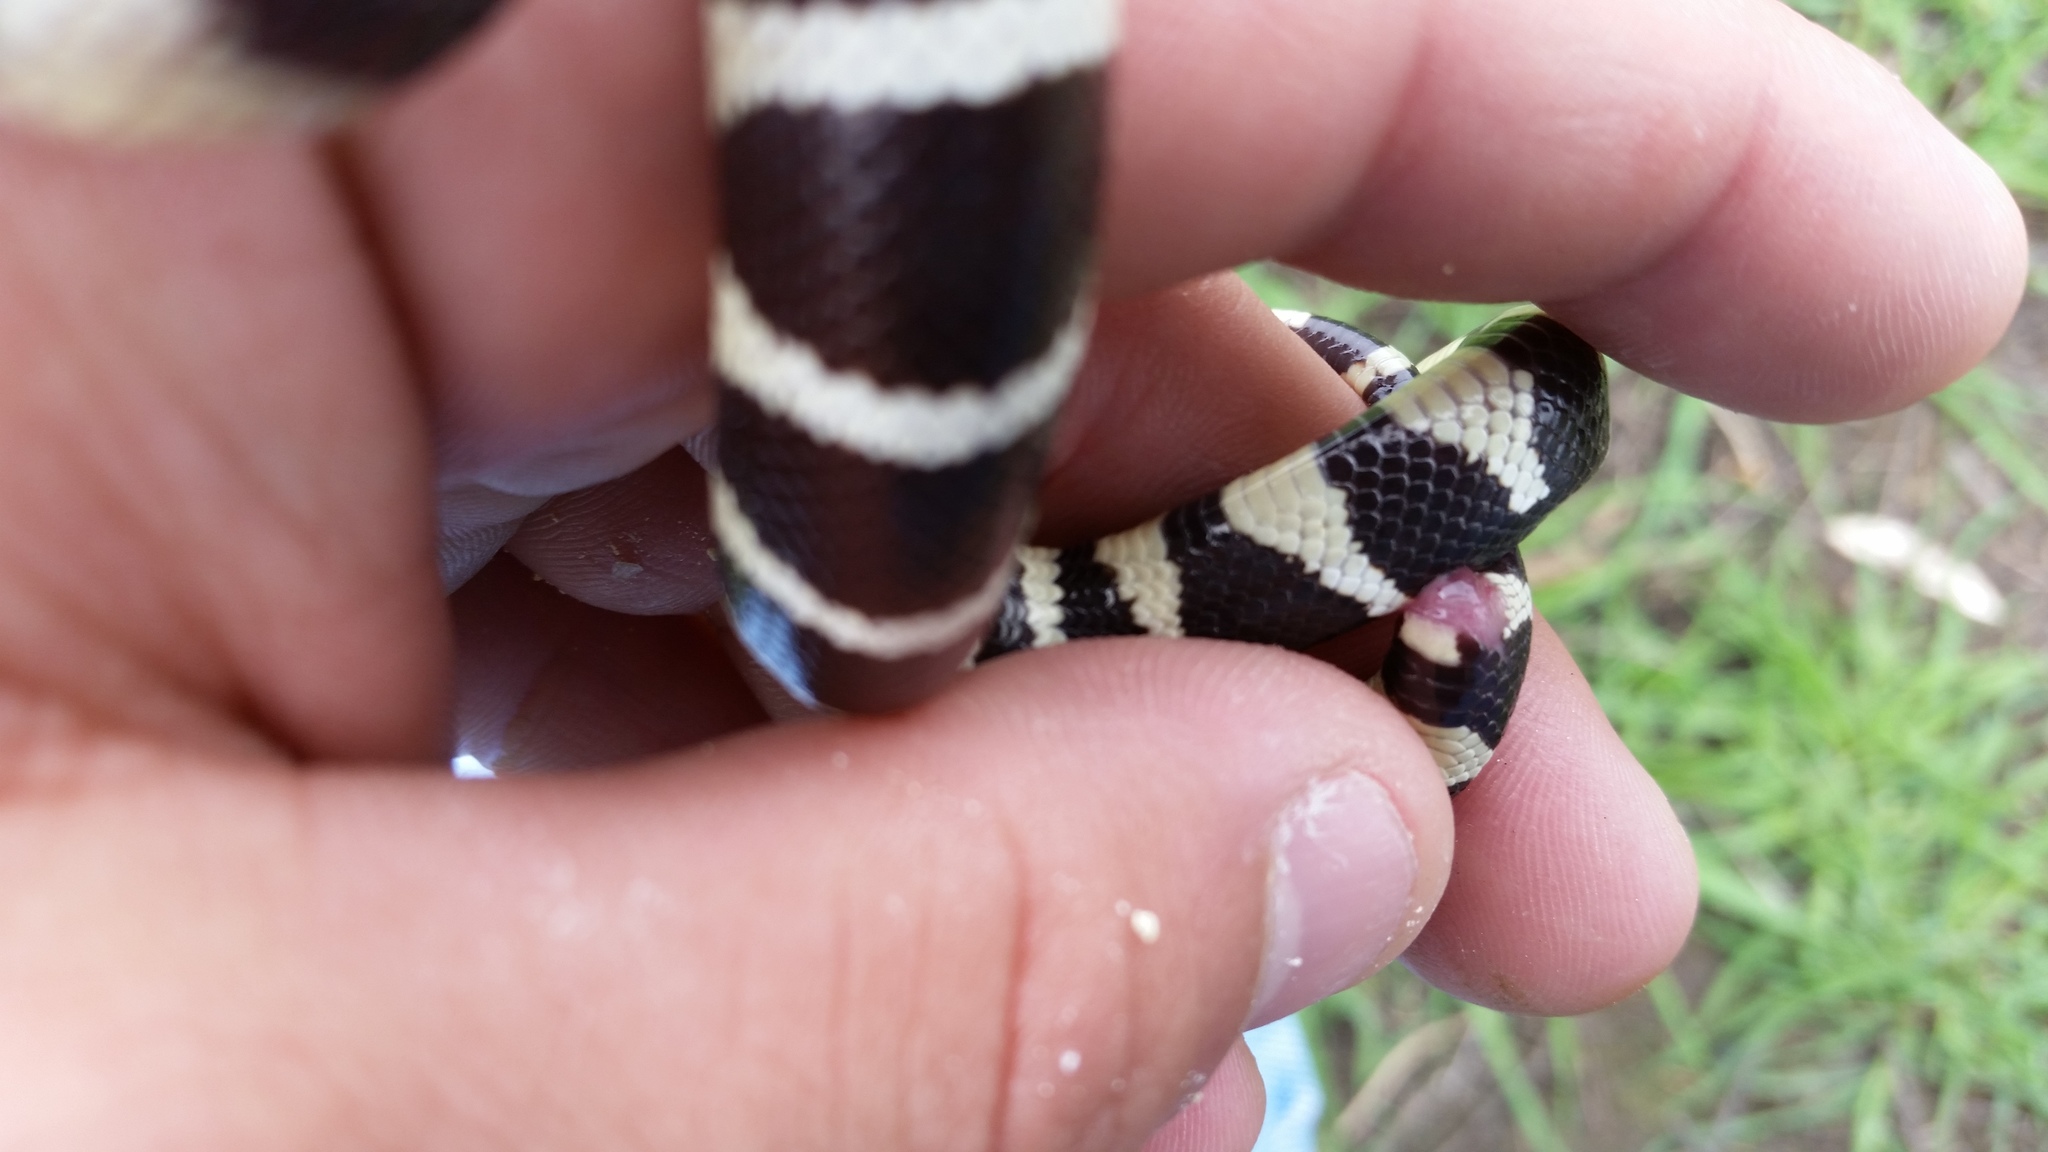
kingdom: Animalia
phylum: Chordata
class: Squamata
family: Colubridae
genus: Lampropeltis
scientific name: Lampropeltis californiae
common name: California kingsnake
